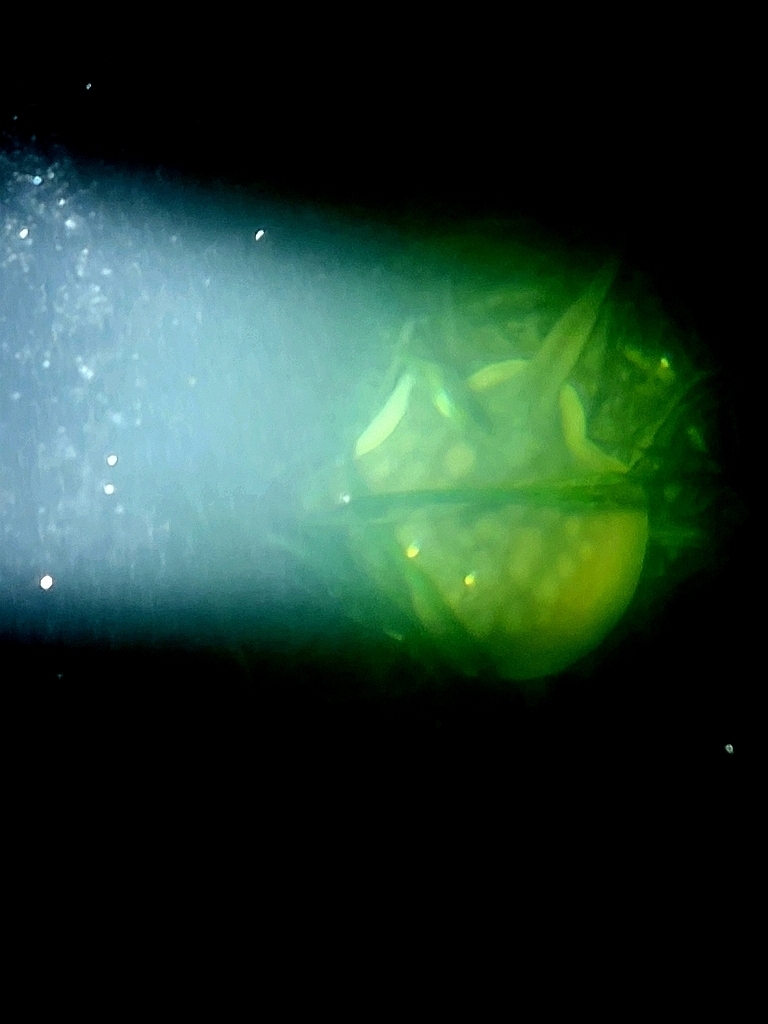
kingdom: Animalia
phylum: Chordata
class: Elasmobranchii
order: Myliobatiformes
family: Urolophidae
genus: Urolophus
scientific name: Urolophus halleri
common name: Round stingray
